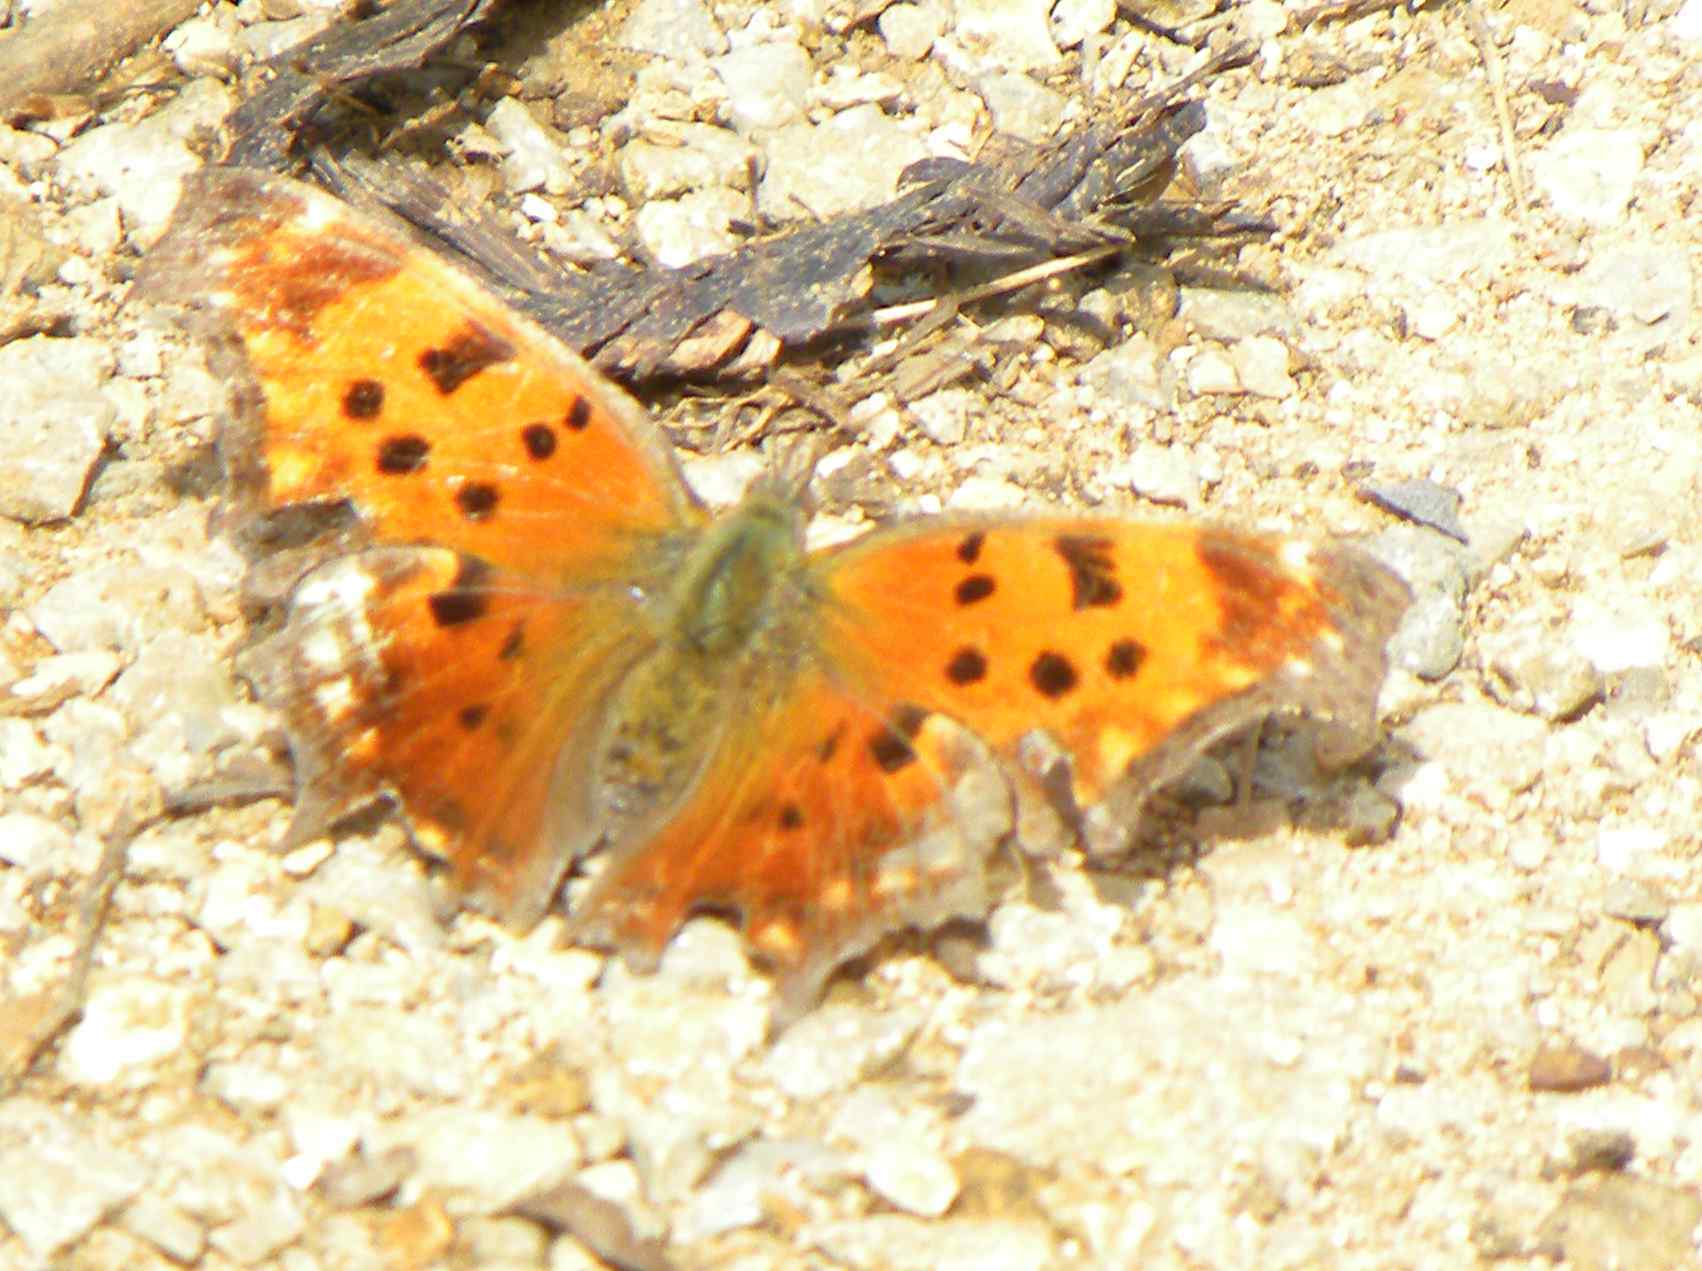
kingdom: Animalia
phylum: Arthropoda
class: Insecta
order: Lepidoptera
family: Nymphalidae
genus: Polygonia
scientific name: Polygonia comma
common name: Eastern comma
